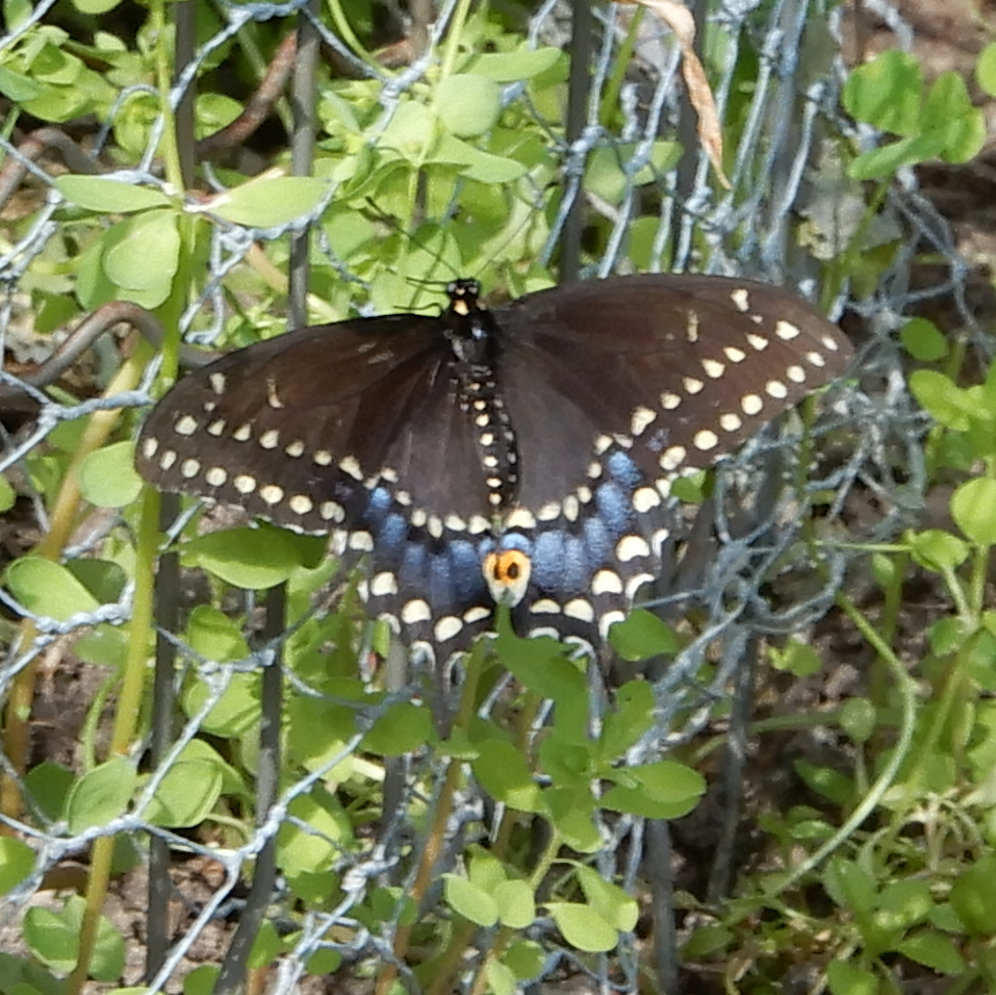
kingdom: Animalia
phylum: Arthropoda
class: Insecta
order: Lepidoptera
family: Papilionidae
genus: Papilio
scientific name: Papilio polyxenes
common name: Black swallowtail
